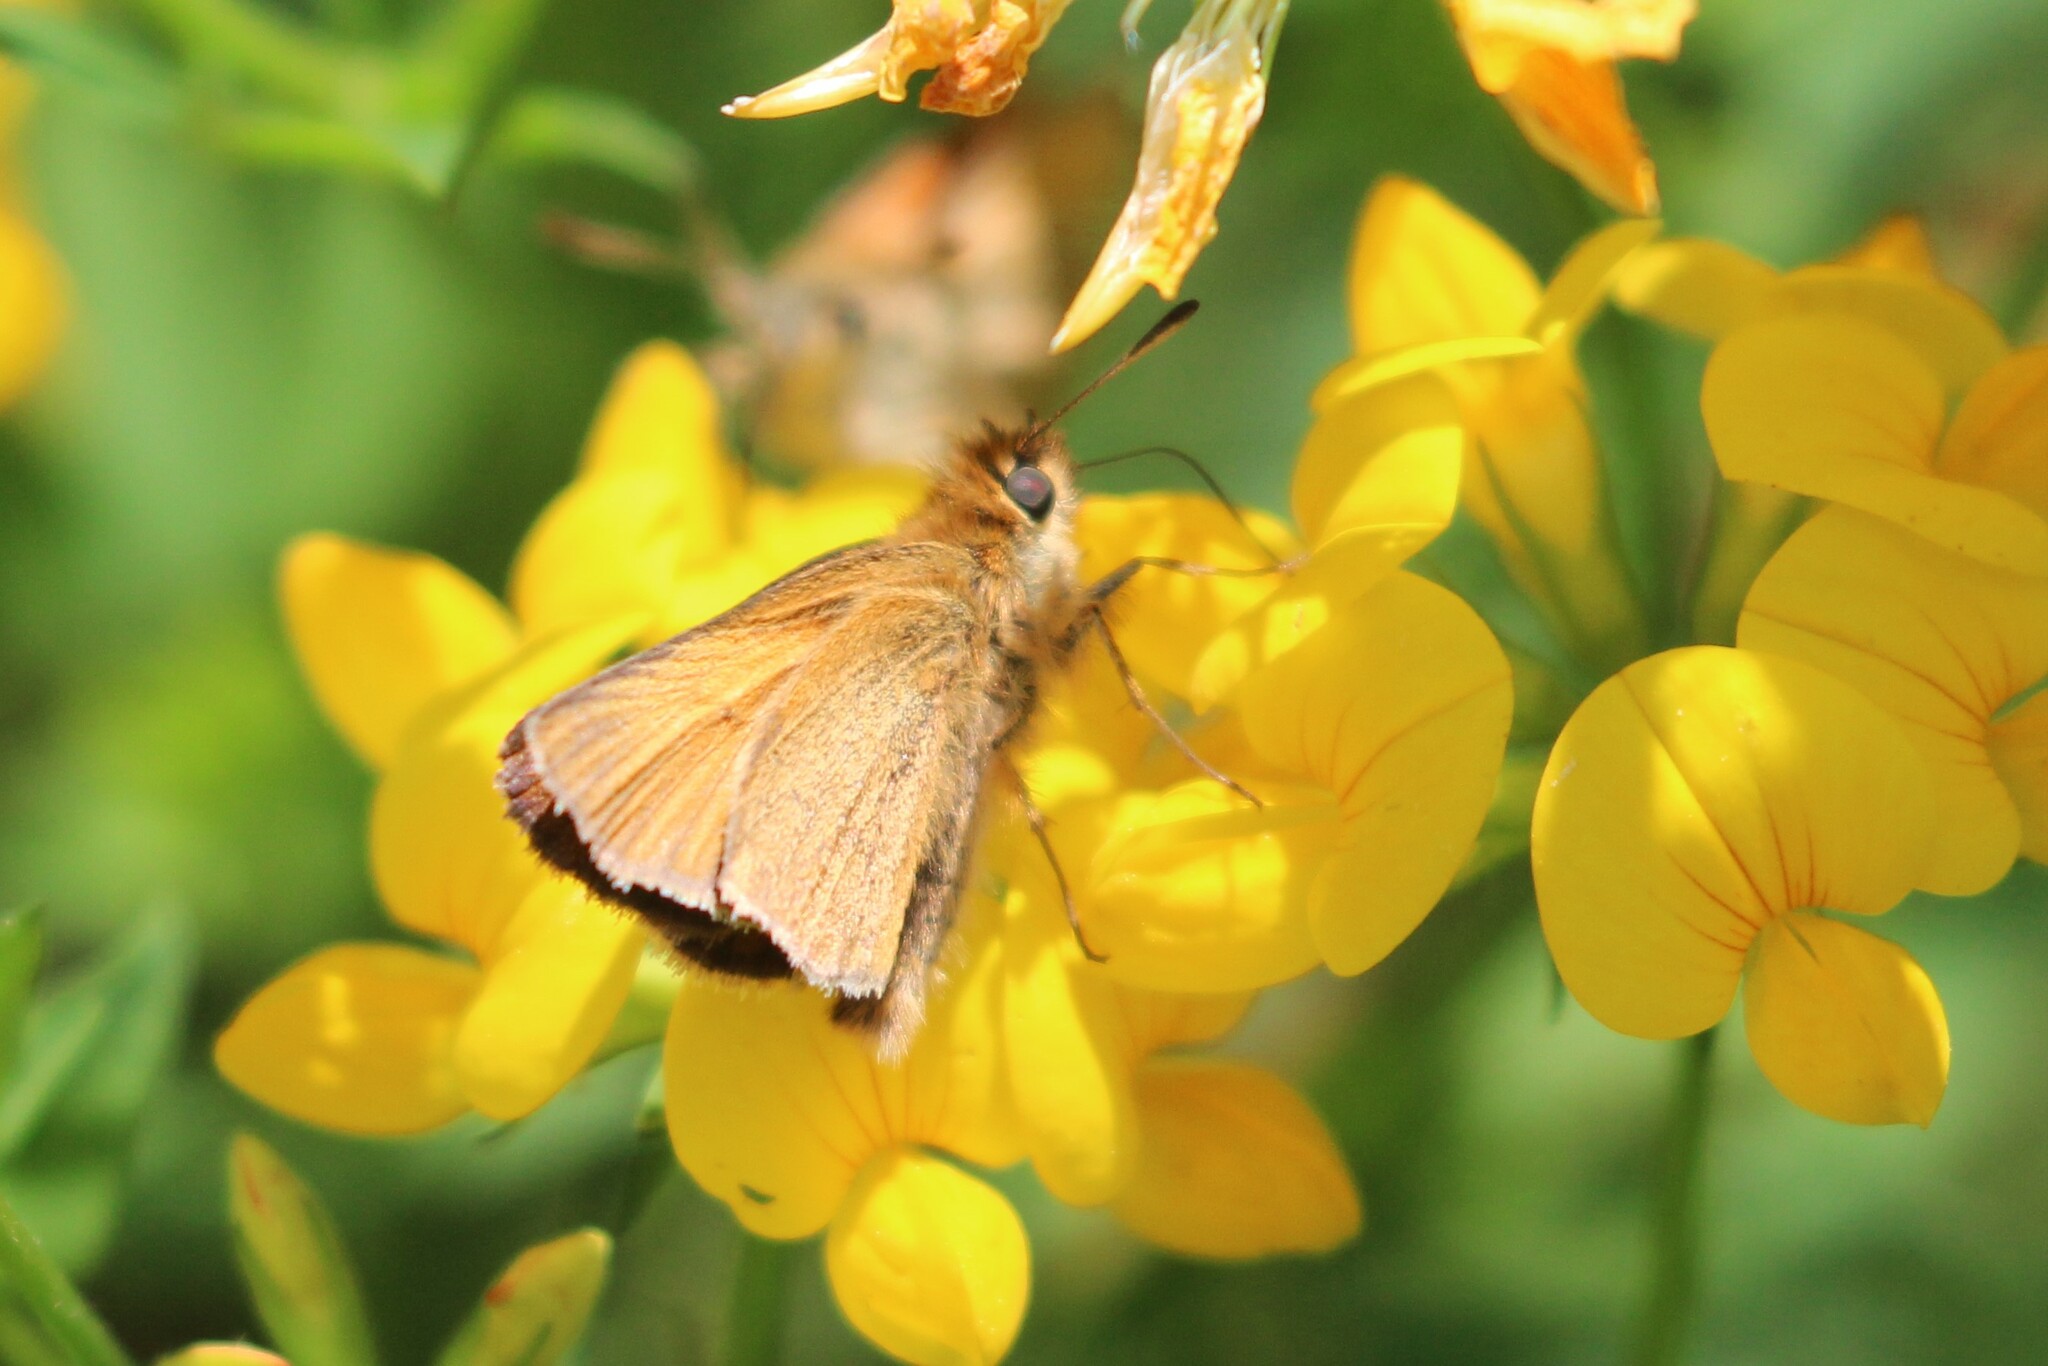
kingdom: Animalia
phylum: Arthropoda
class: Insecta
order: Lepidoptera
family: Hesperiidae
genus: Thymelicus
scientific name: Thymelicus lineola
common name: Essex skipper
